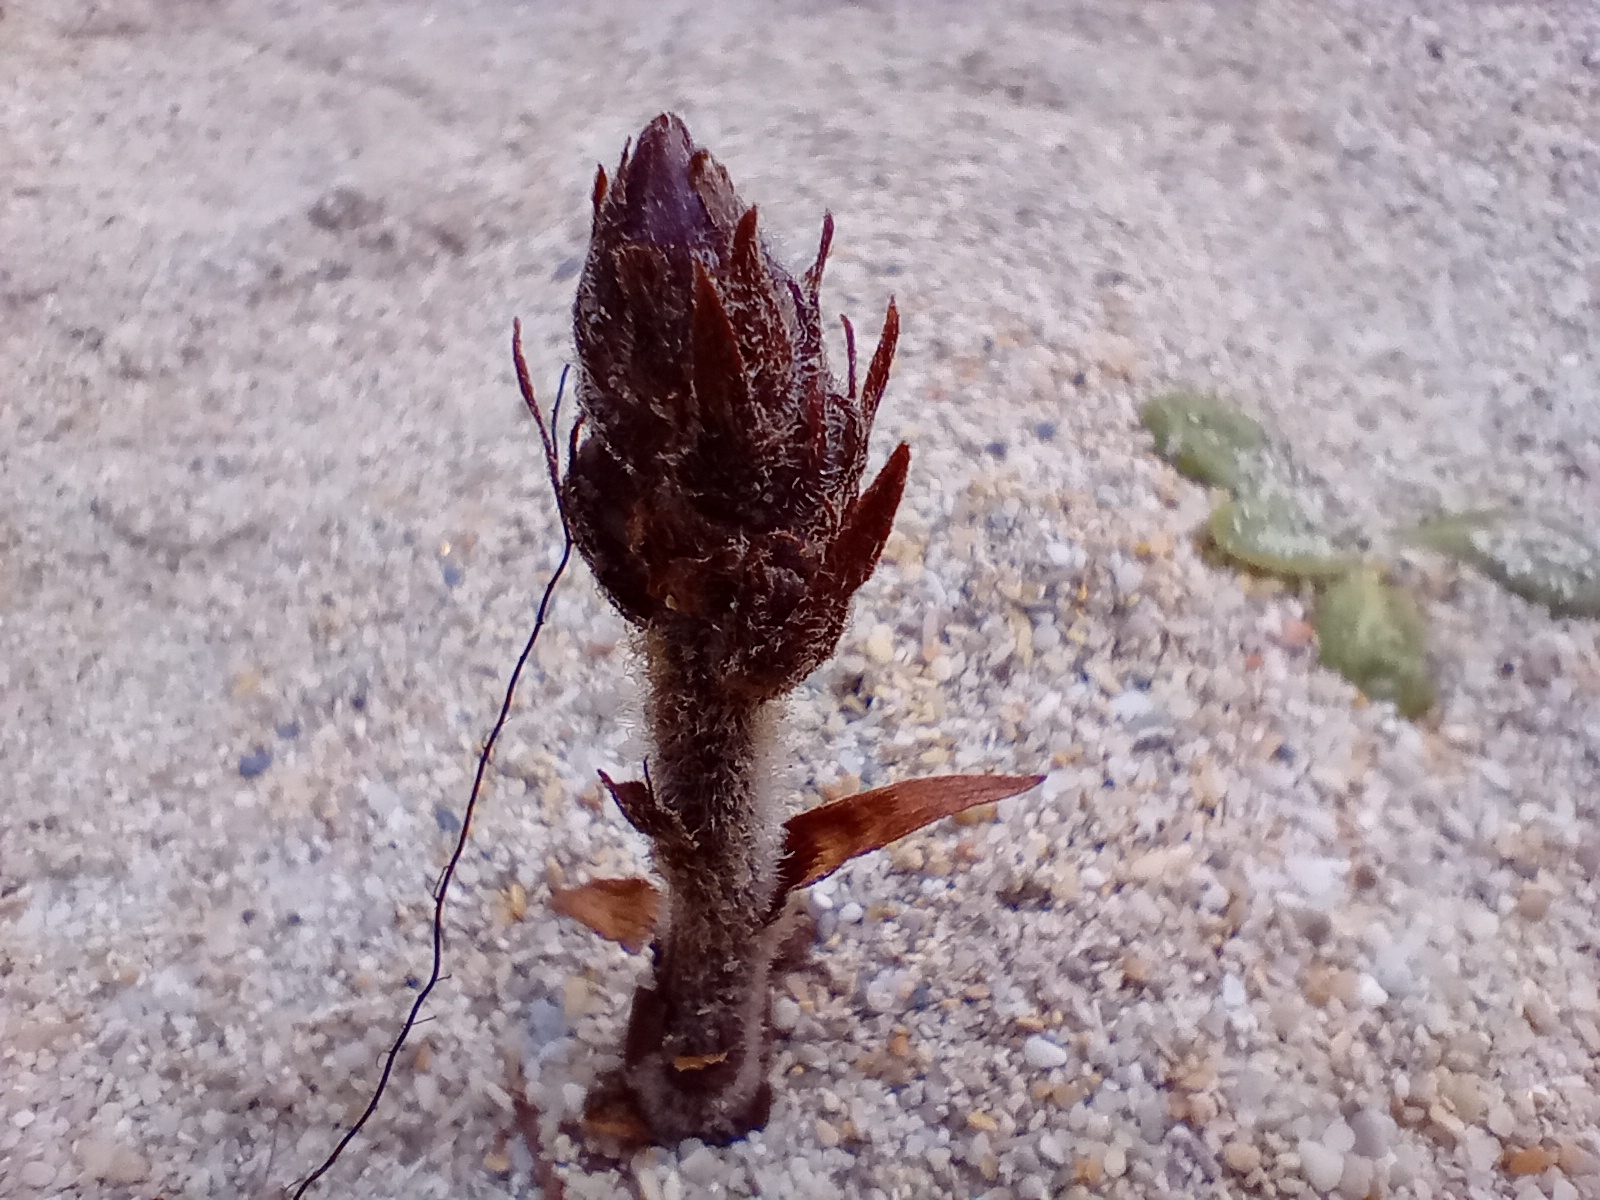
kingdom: Plantae
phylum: Tracheophyta
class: Magnoliopsida
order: Lamiales
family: Orobanchaceae
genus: Orobanche
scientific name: Orobanche minor
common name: Common broomrape
